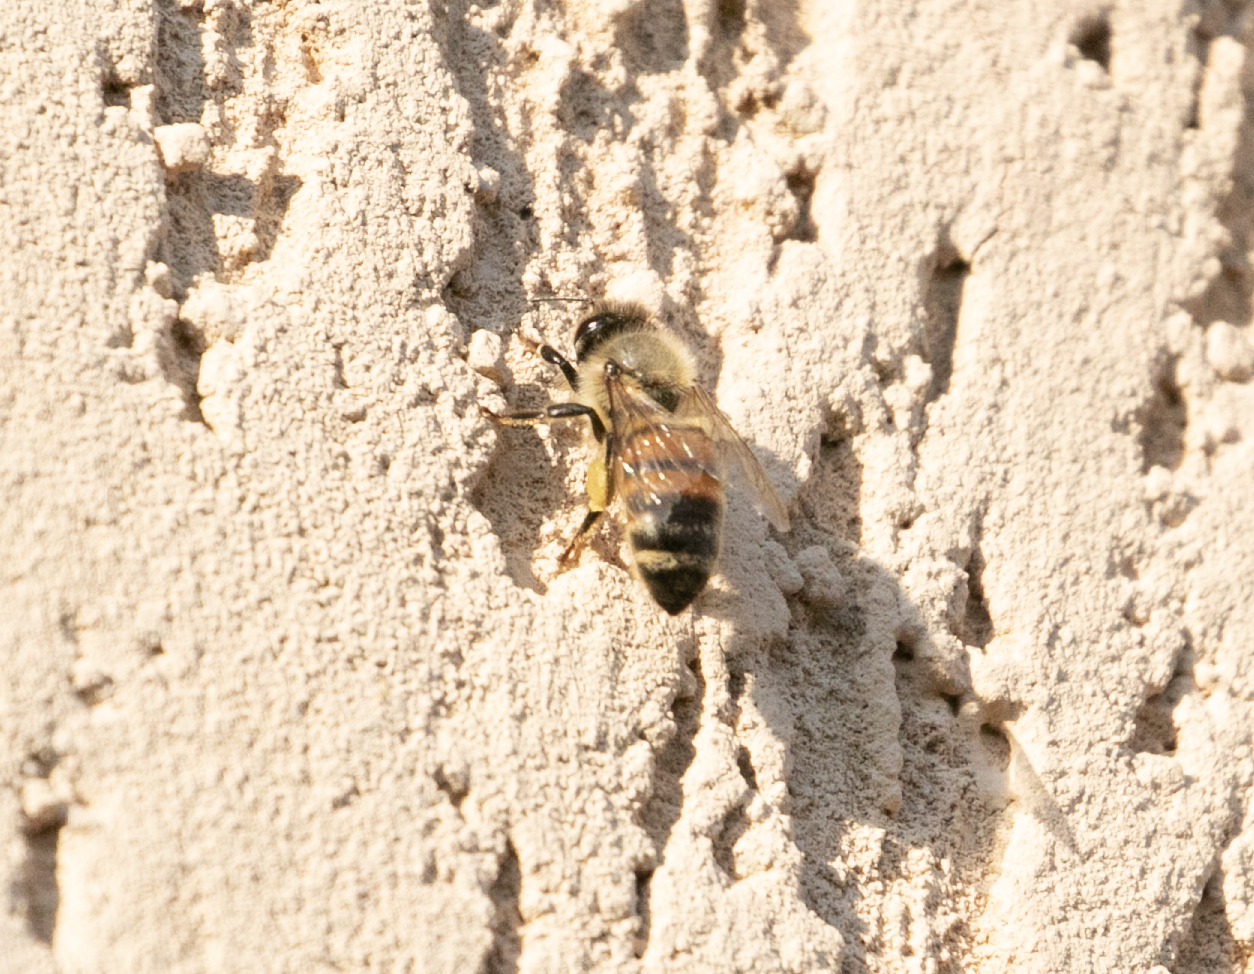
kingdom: Animalia
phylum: Arthropoda
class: Insecta
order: Hymenoptera
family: Apidae
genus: Apis
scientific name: Apis mellifera
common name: Honey bee
